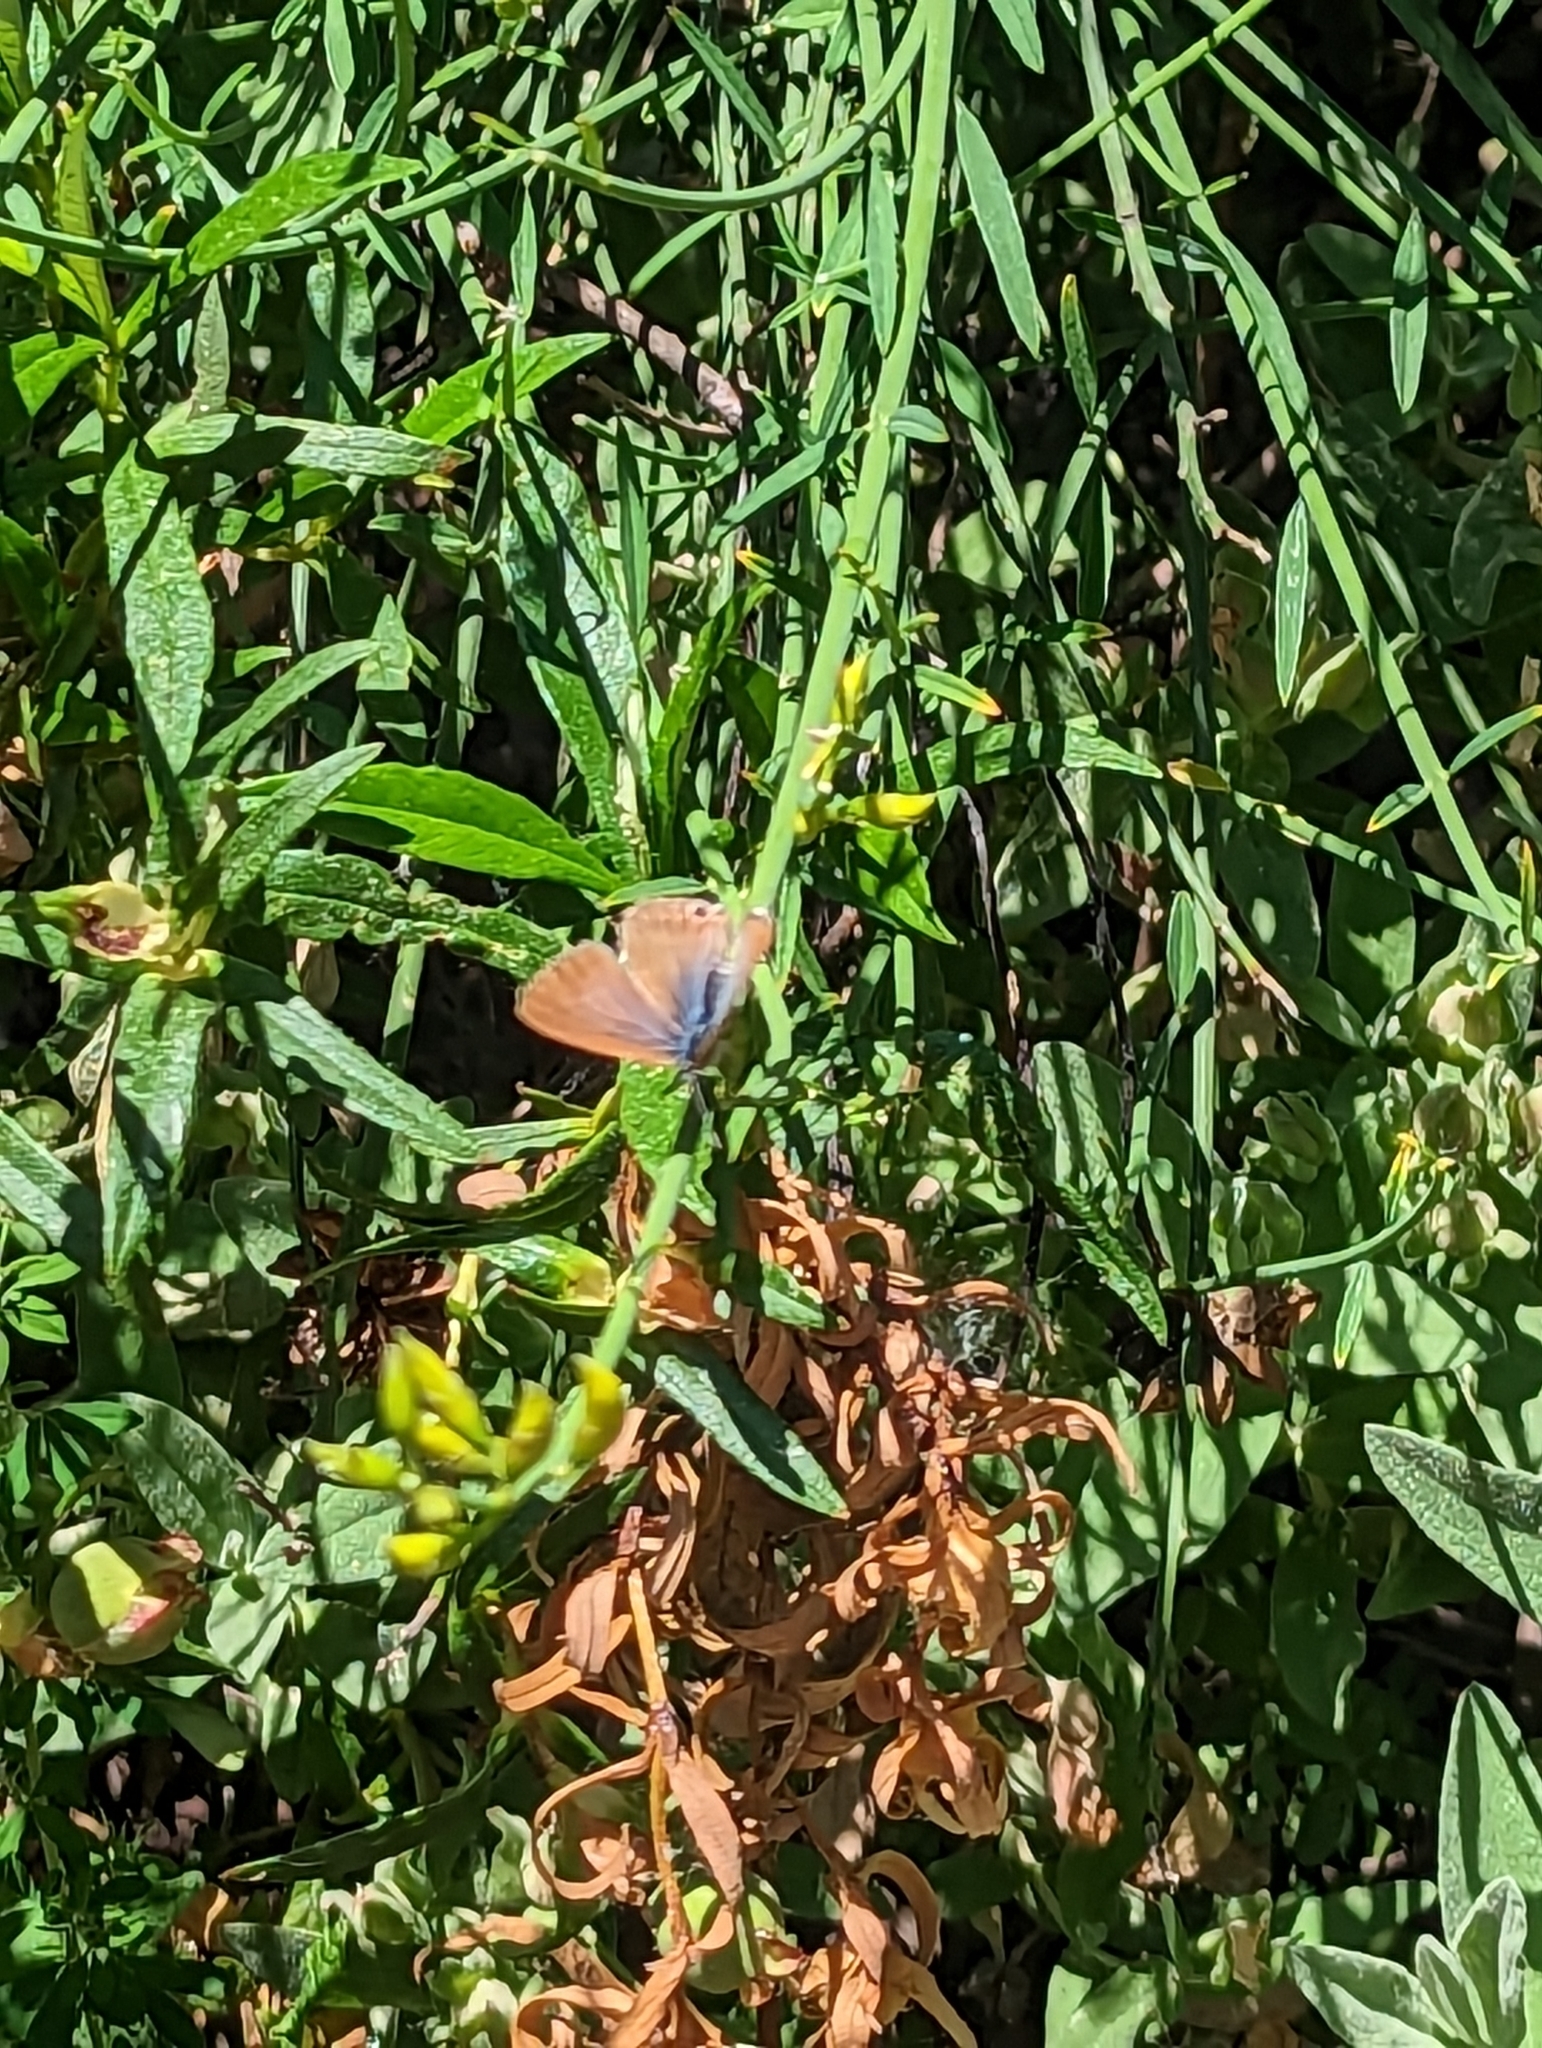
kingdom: Animalia
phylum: Arthropoda
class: Insecta
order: Lepidoptera
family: Lycaenidae
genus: Leptotes
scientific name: Leptotes pirithous
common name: Lang's short-tailed blue
